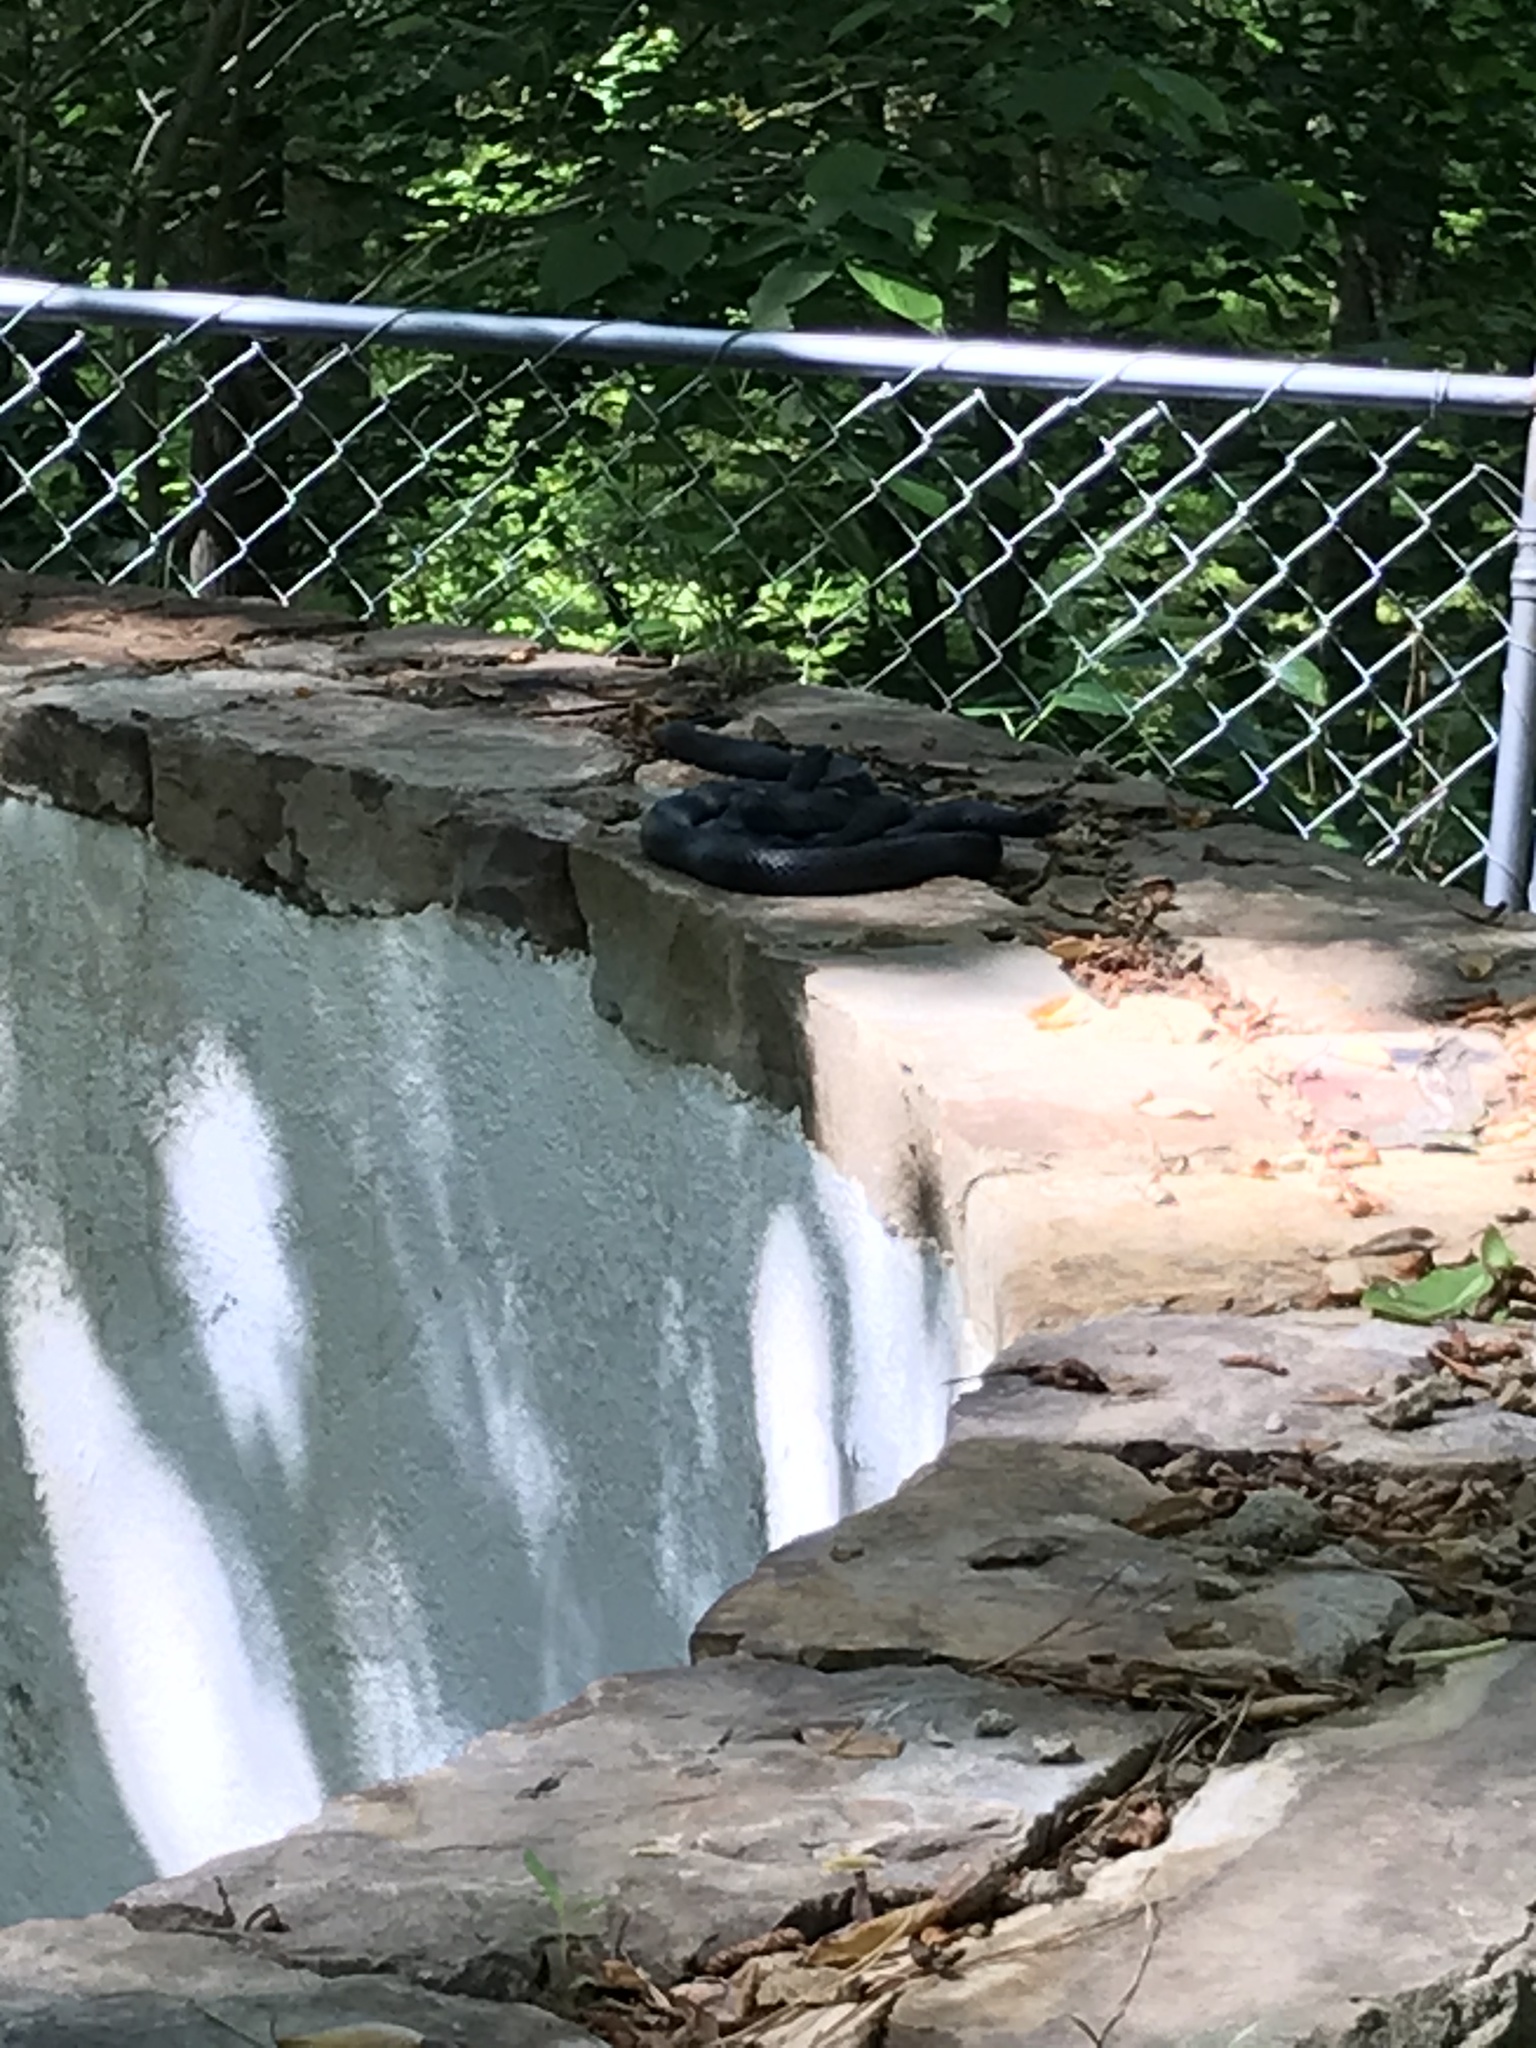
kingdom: Animalia
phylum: Chordata
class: Squamata
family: Colubridae
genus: Coluber
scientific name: Coluber constrictor
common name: Eastern racer
